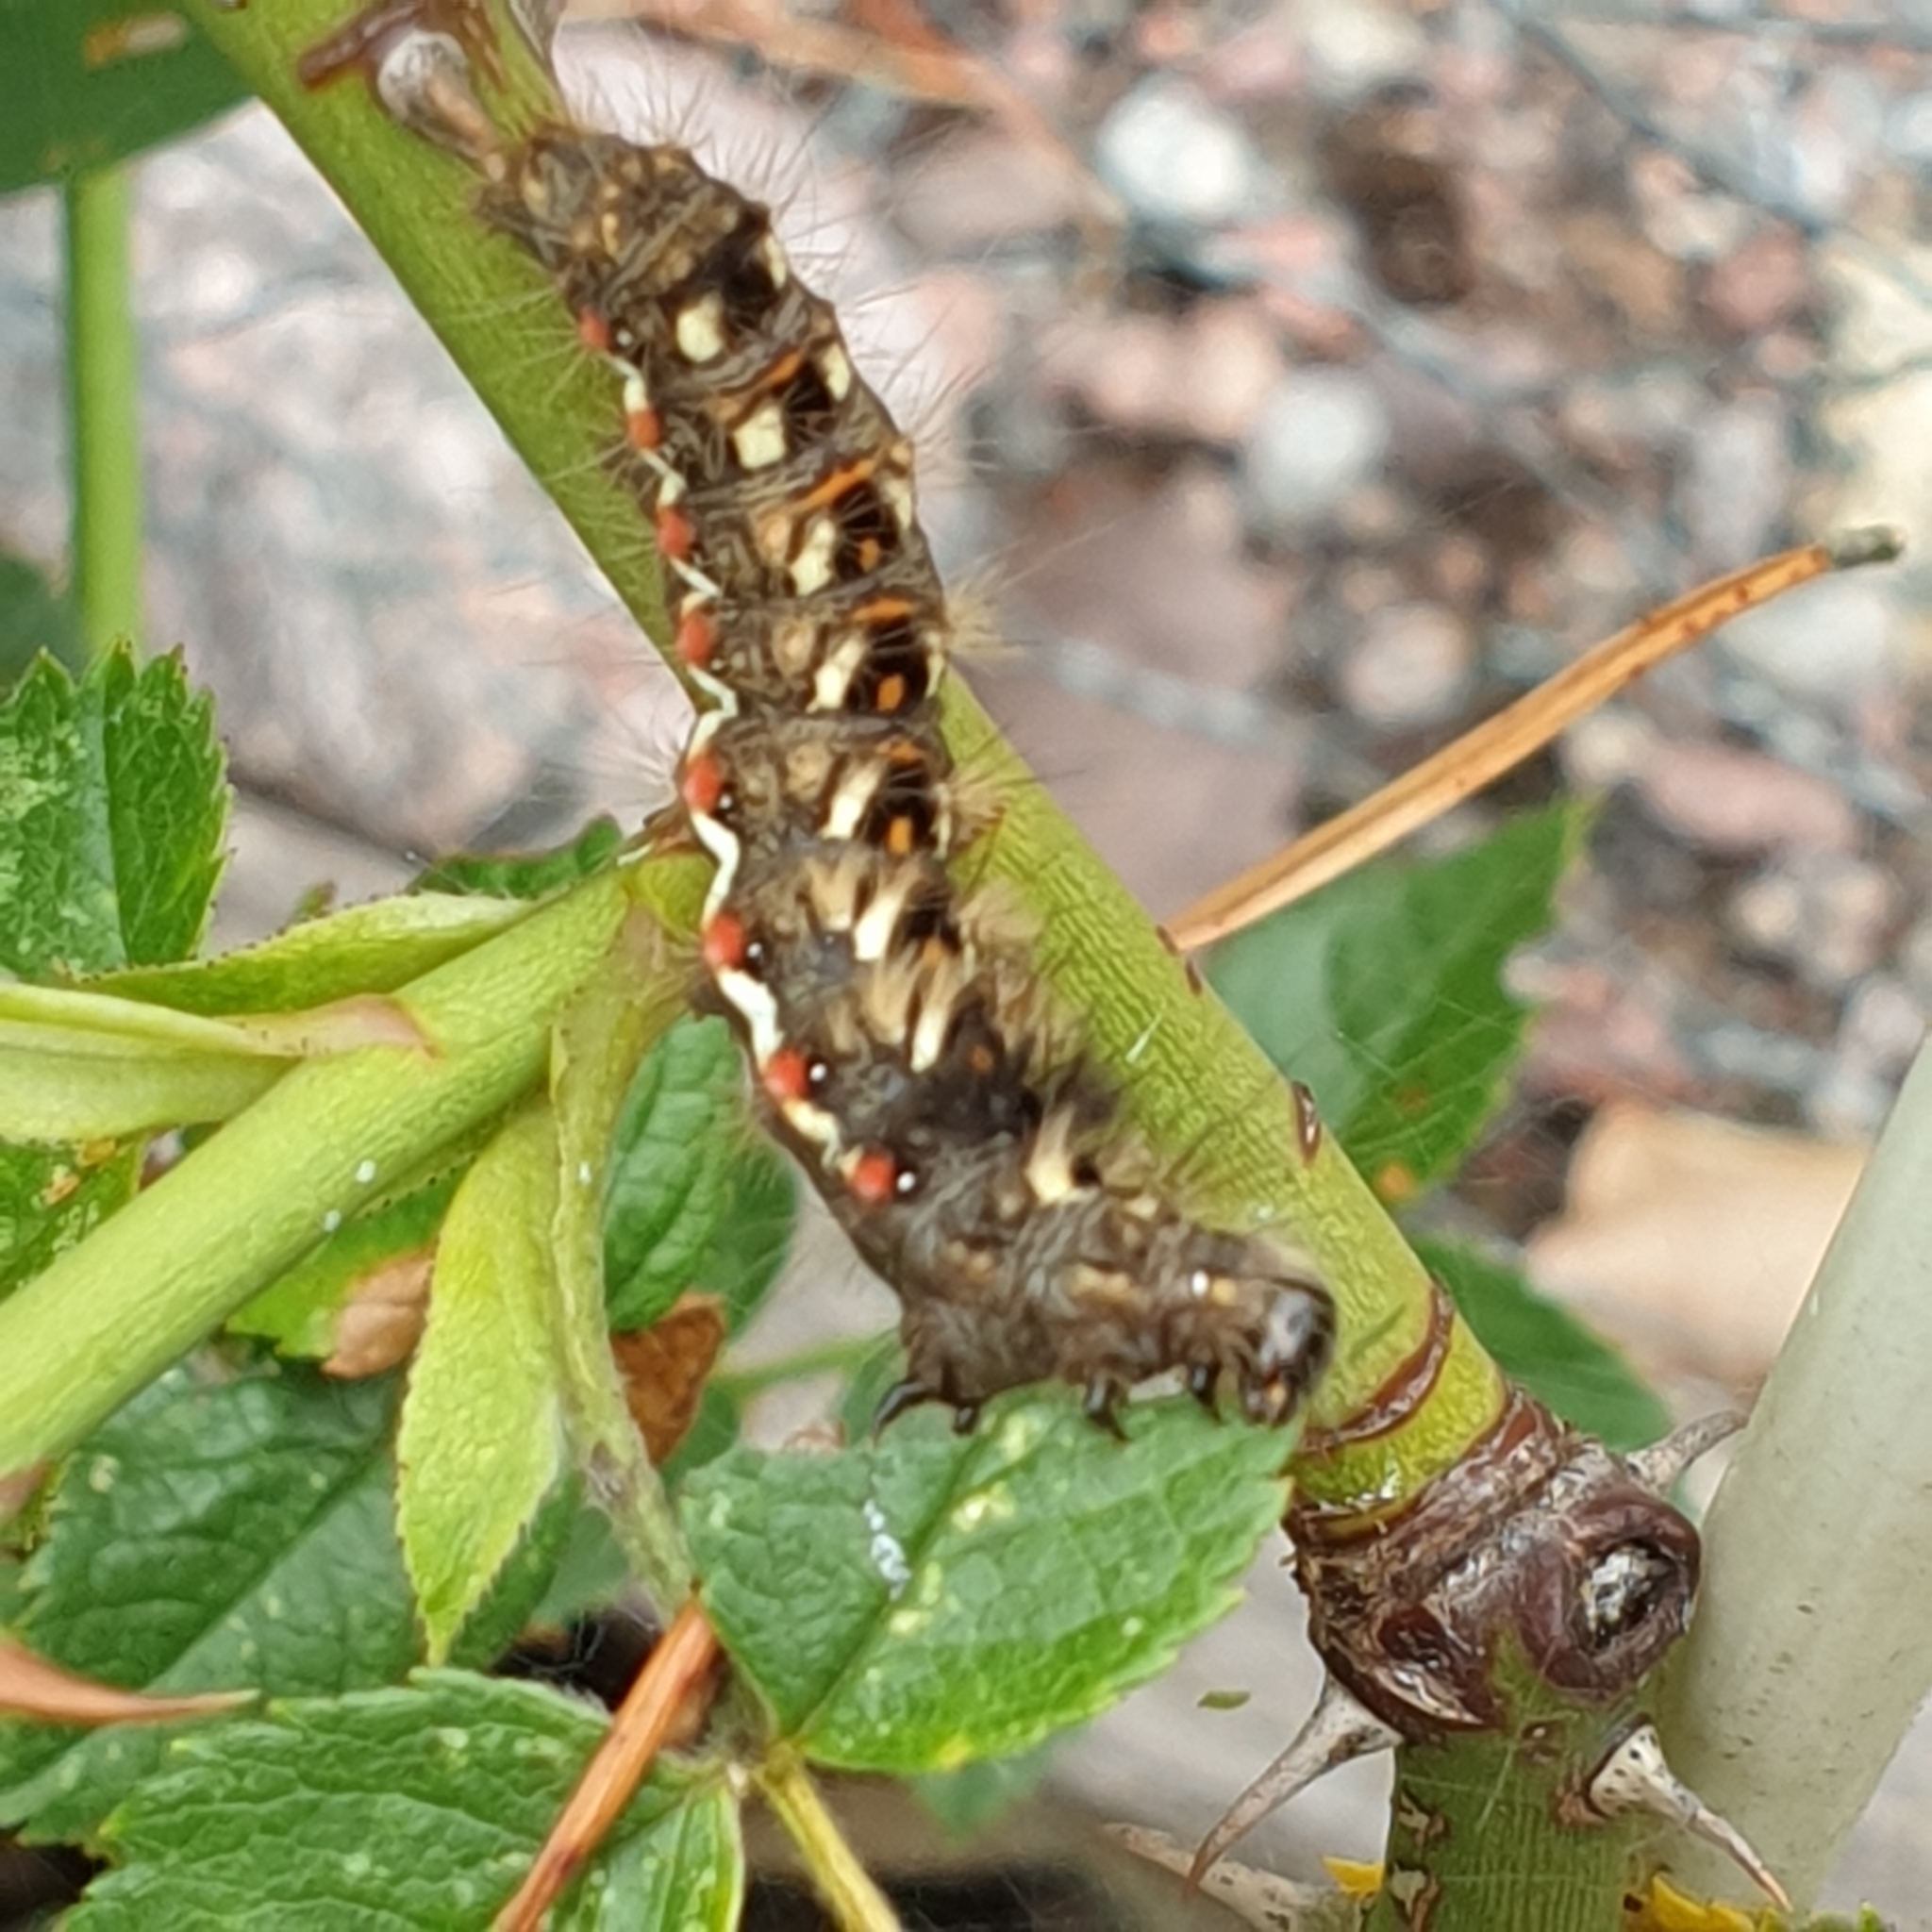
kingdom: Animalia
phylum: Arthropoda
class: Insecta
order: Lepidoptera
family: Noctuidae
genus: Acronicta
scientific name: Acronicta rumicis
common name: Knot grass
